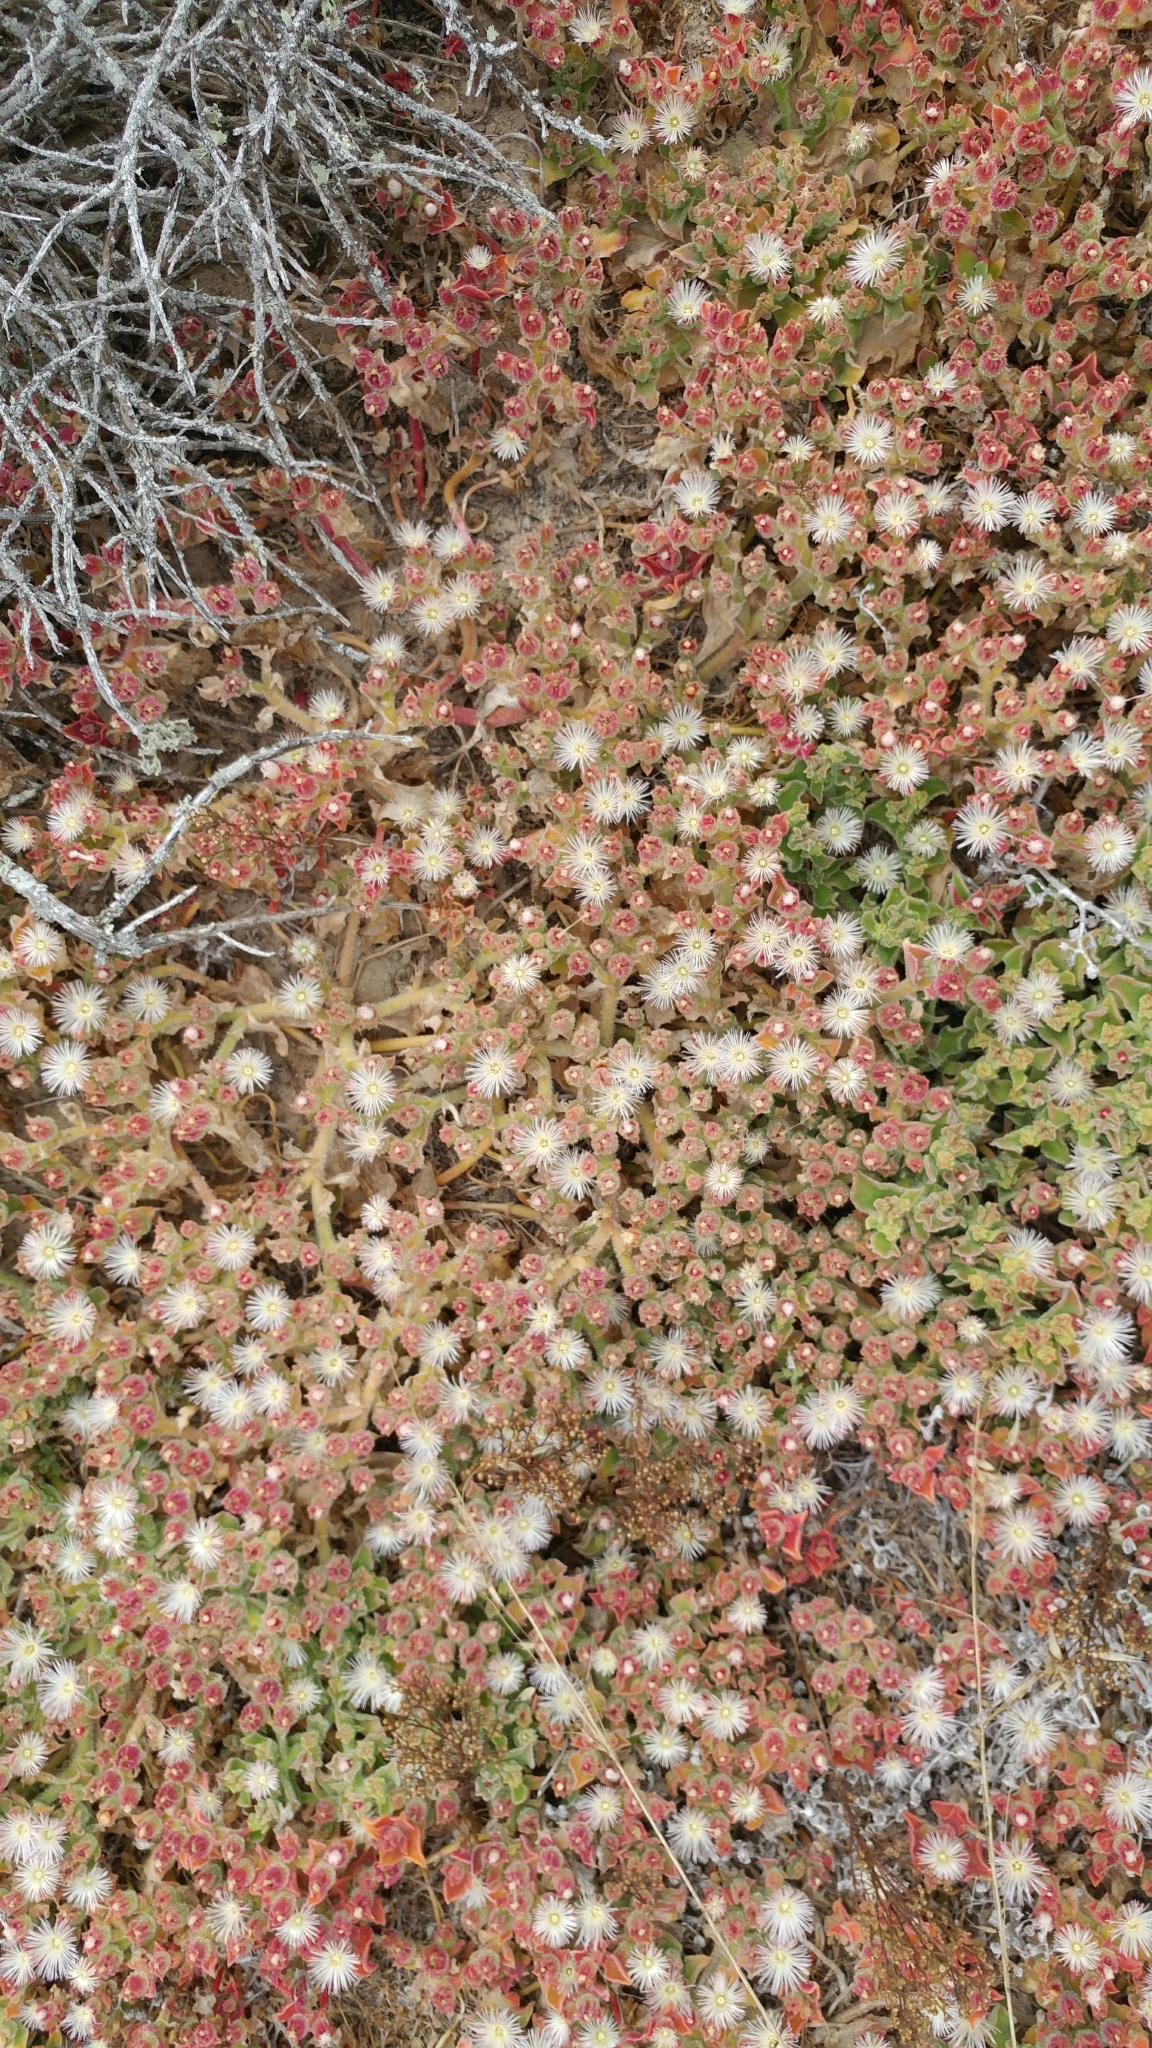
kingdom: Plantae
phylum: Tracheophyta
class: Magnoliopsida
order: Caryophyllales
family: Aizoaceae
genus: Mesembryanthemum
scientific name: Mesembryanthemum crystallinum
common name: Common iceplant
